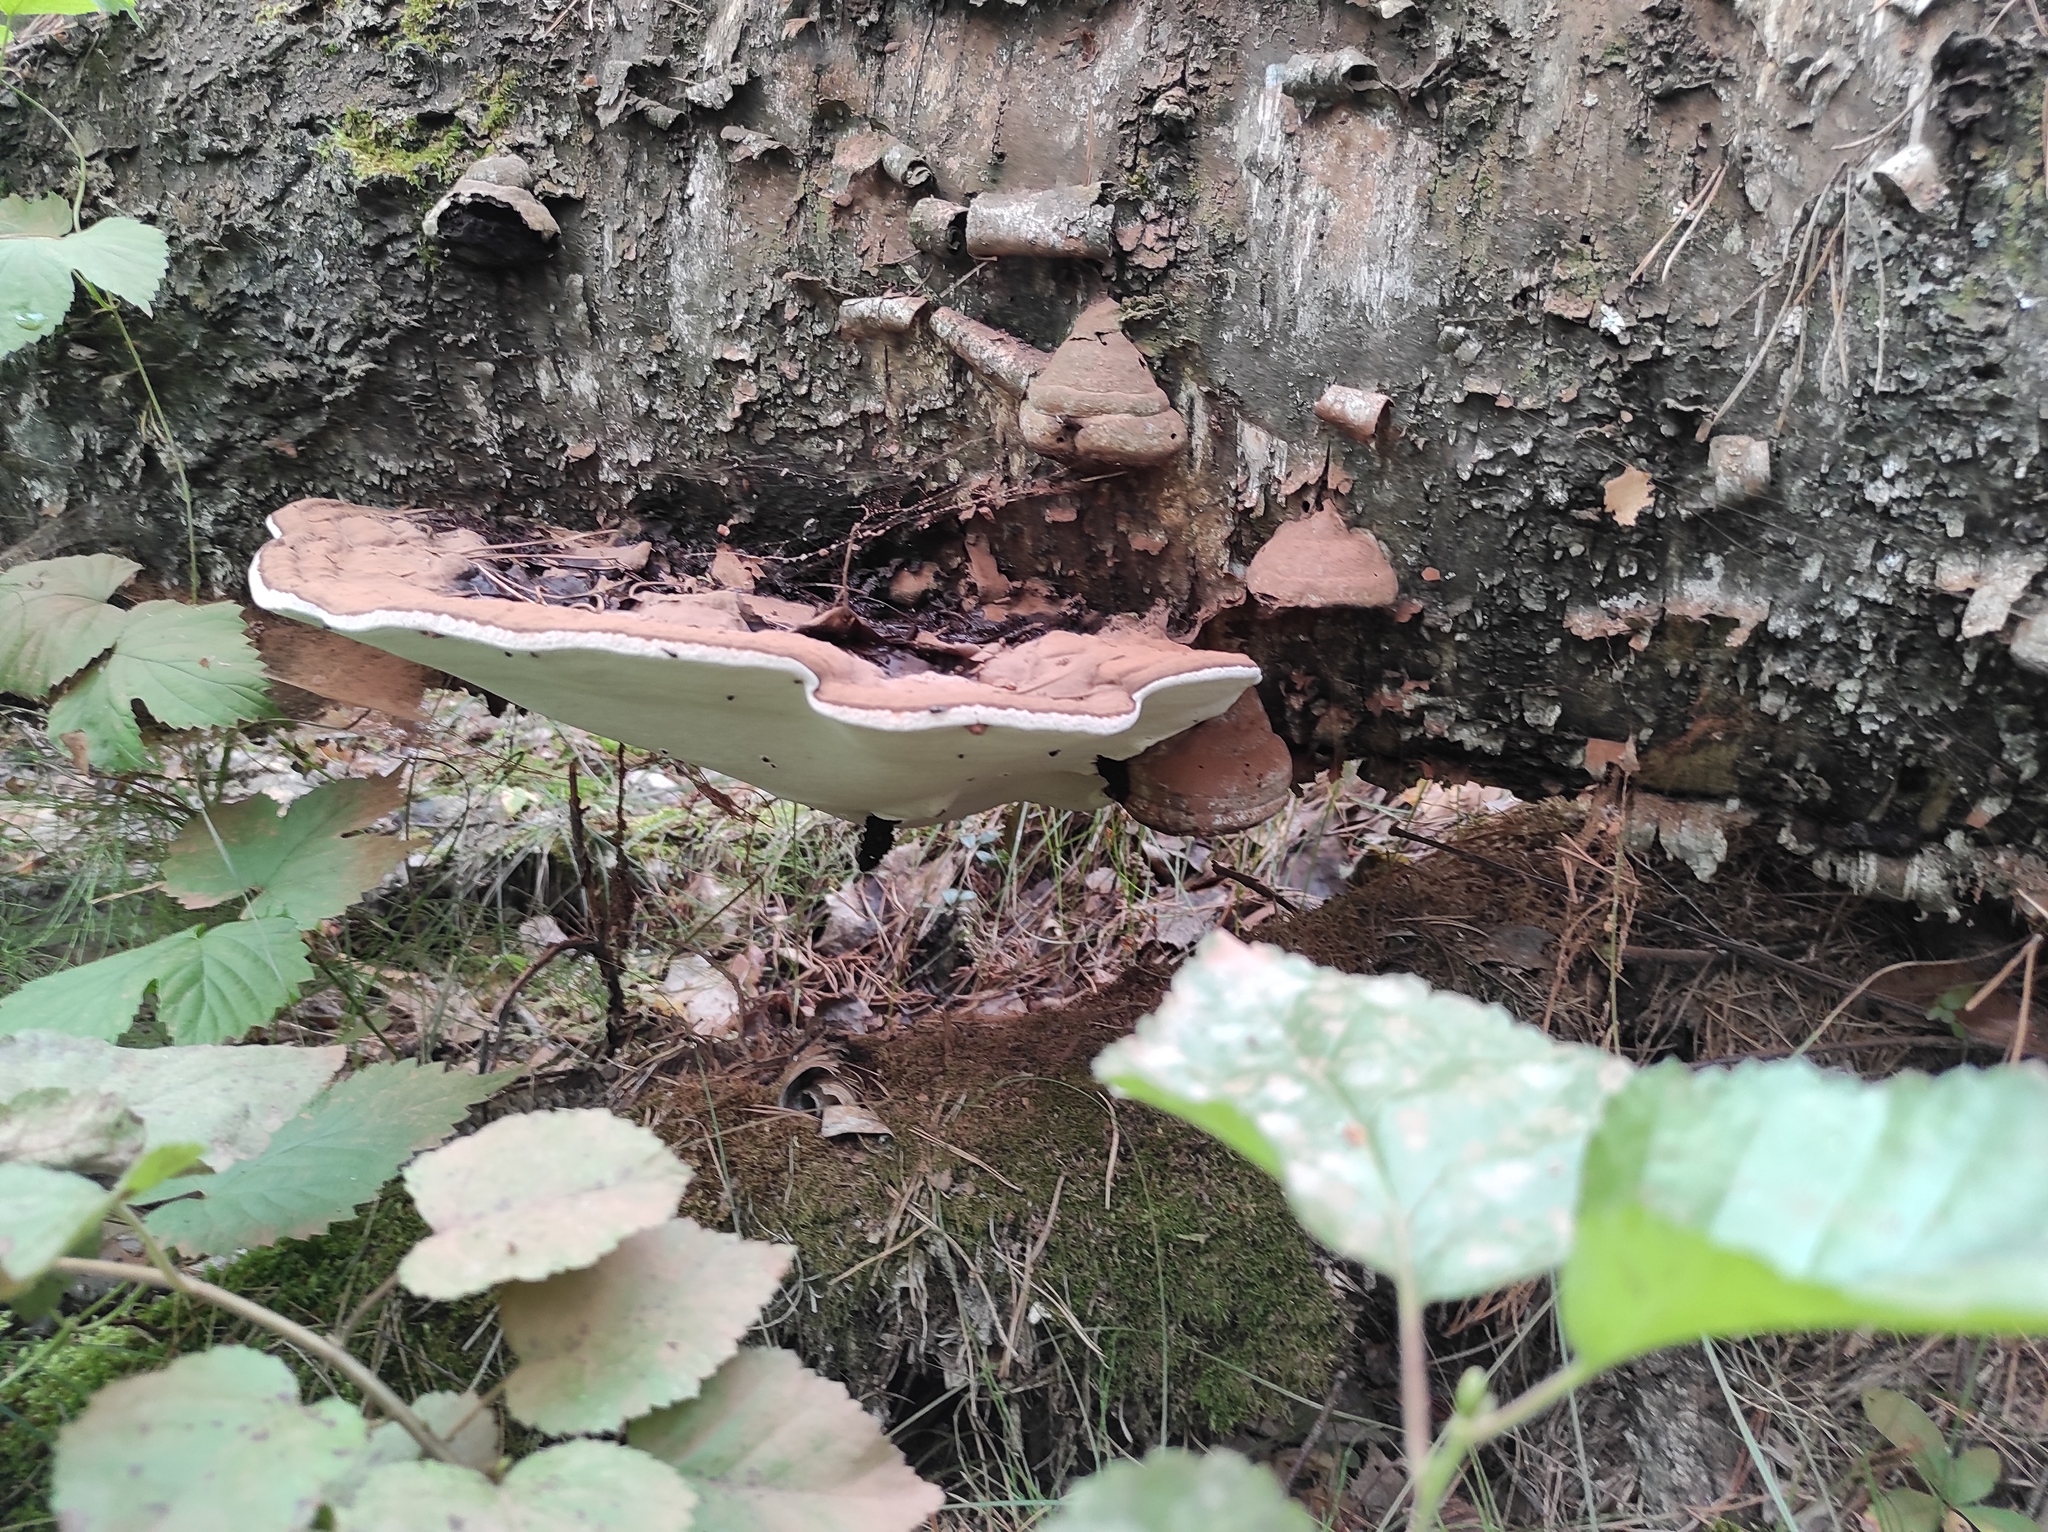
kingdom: Fungi
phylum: Basidiomycota
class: Agaricomycetes
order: Polyporales
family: Polyporaceae
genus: Ganoderma
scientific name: Ganoderma applanatum
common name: Artist's bracket
